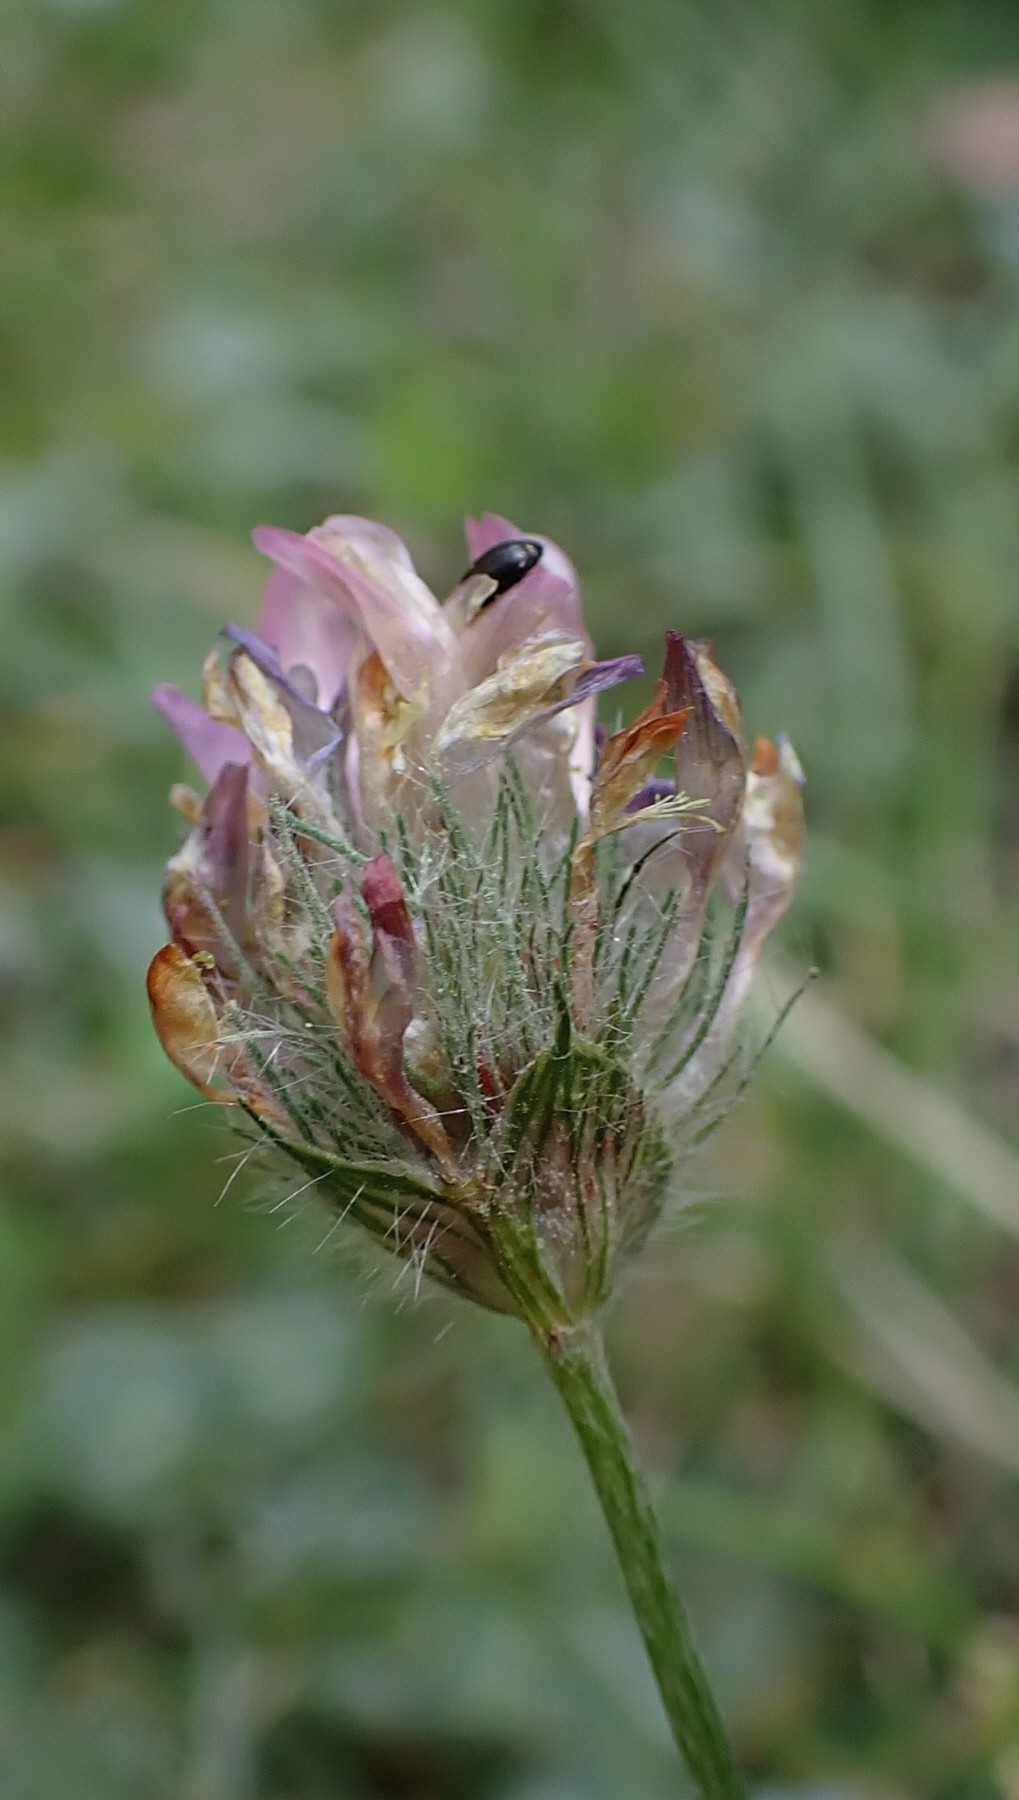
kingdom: Plantae
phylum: Tracheophyta
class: Magnoliopsida
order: Fabales
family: Fabaceae
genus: Trifolium
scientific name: Trifolium pratense
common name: Red clover
